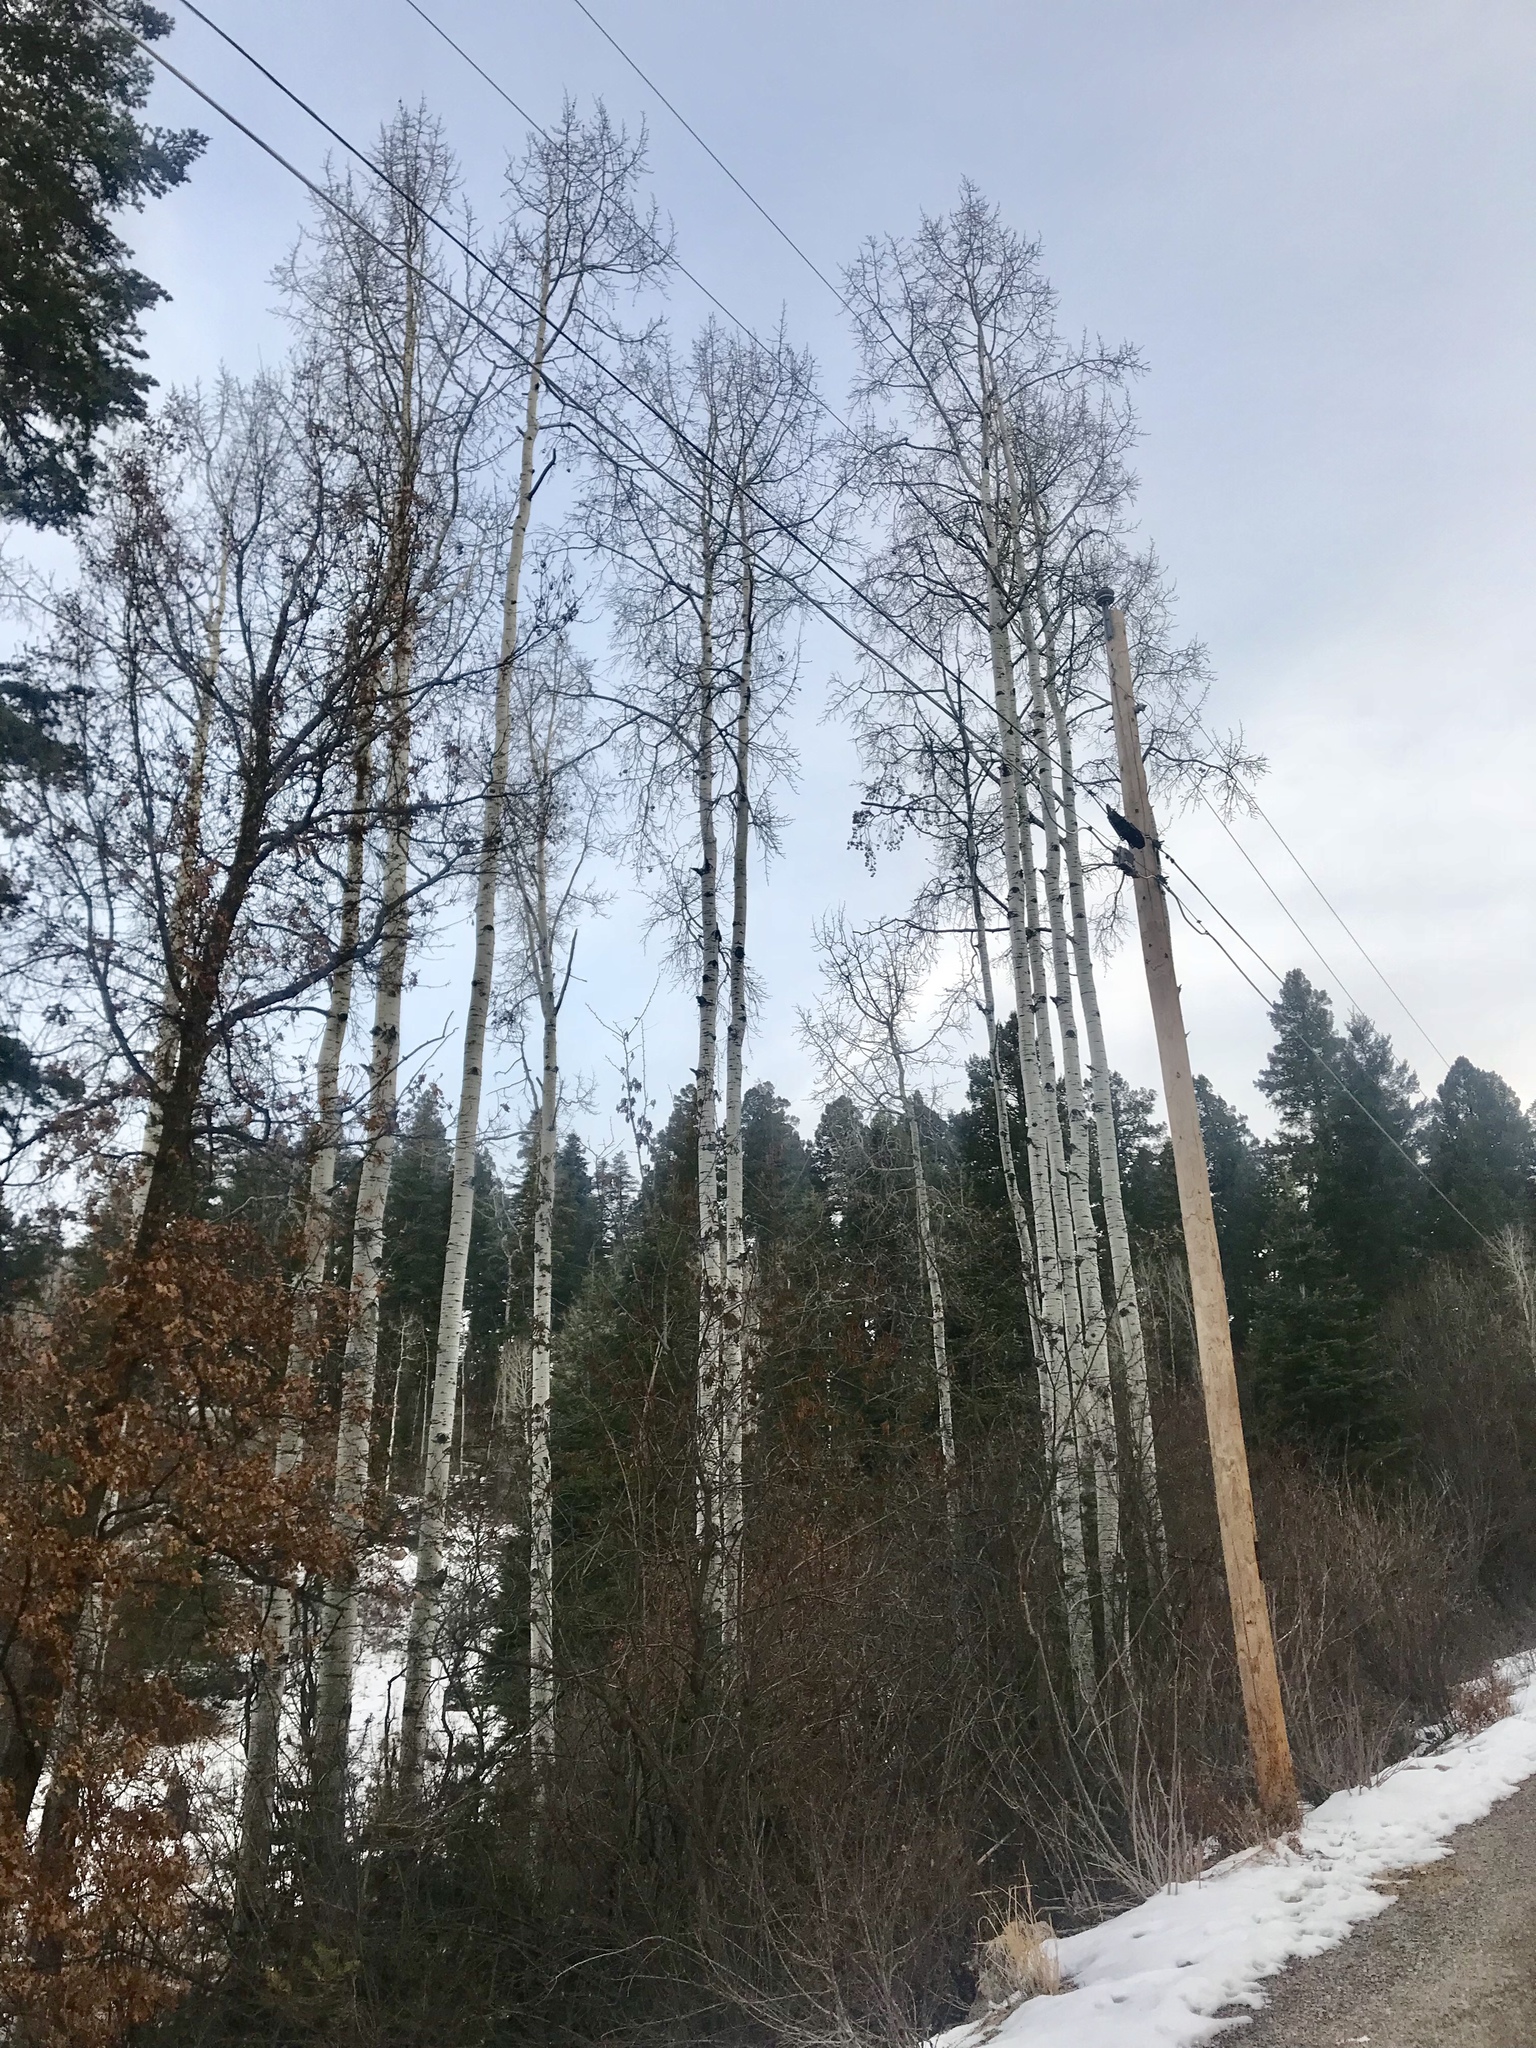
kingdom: Plantae
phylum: Tracheophyta
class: Magnoliopsida
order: Malpighiales
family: Salicaceae
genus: Populus
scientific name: Populus tremuloides
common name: Quaking aspen
